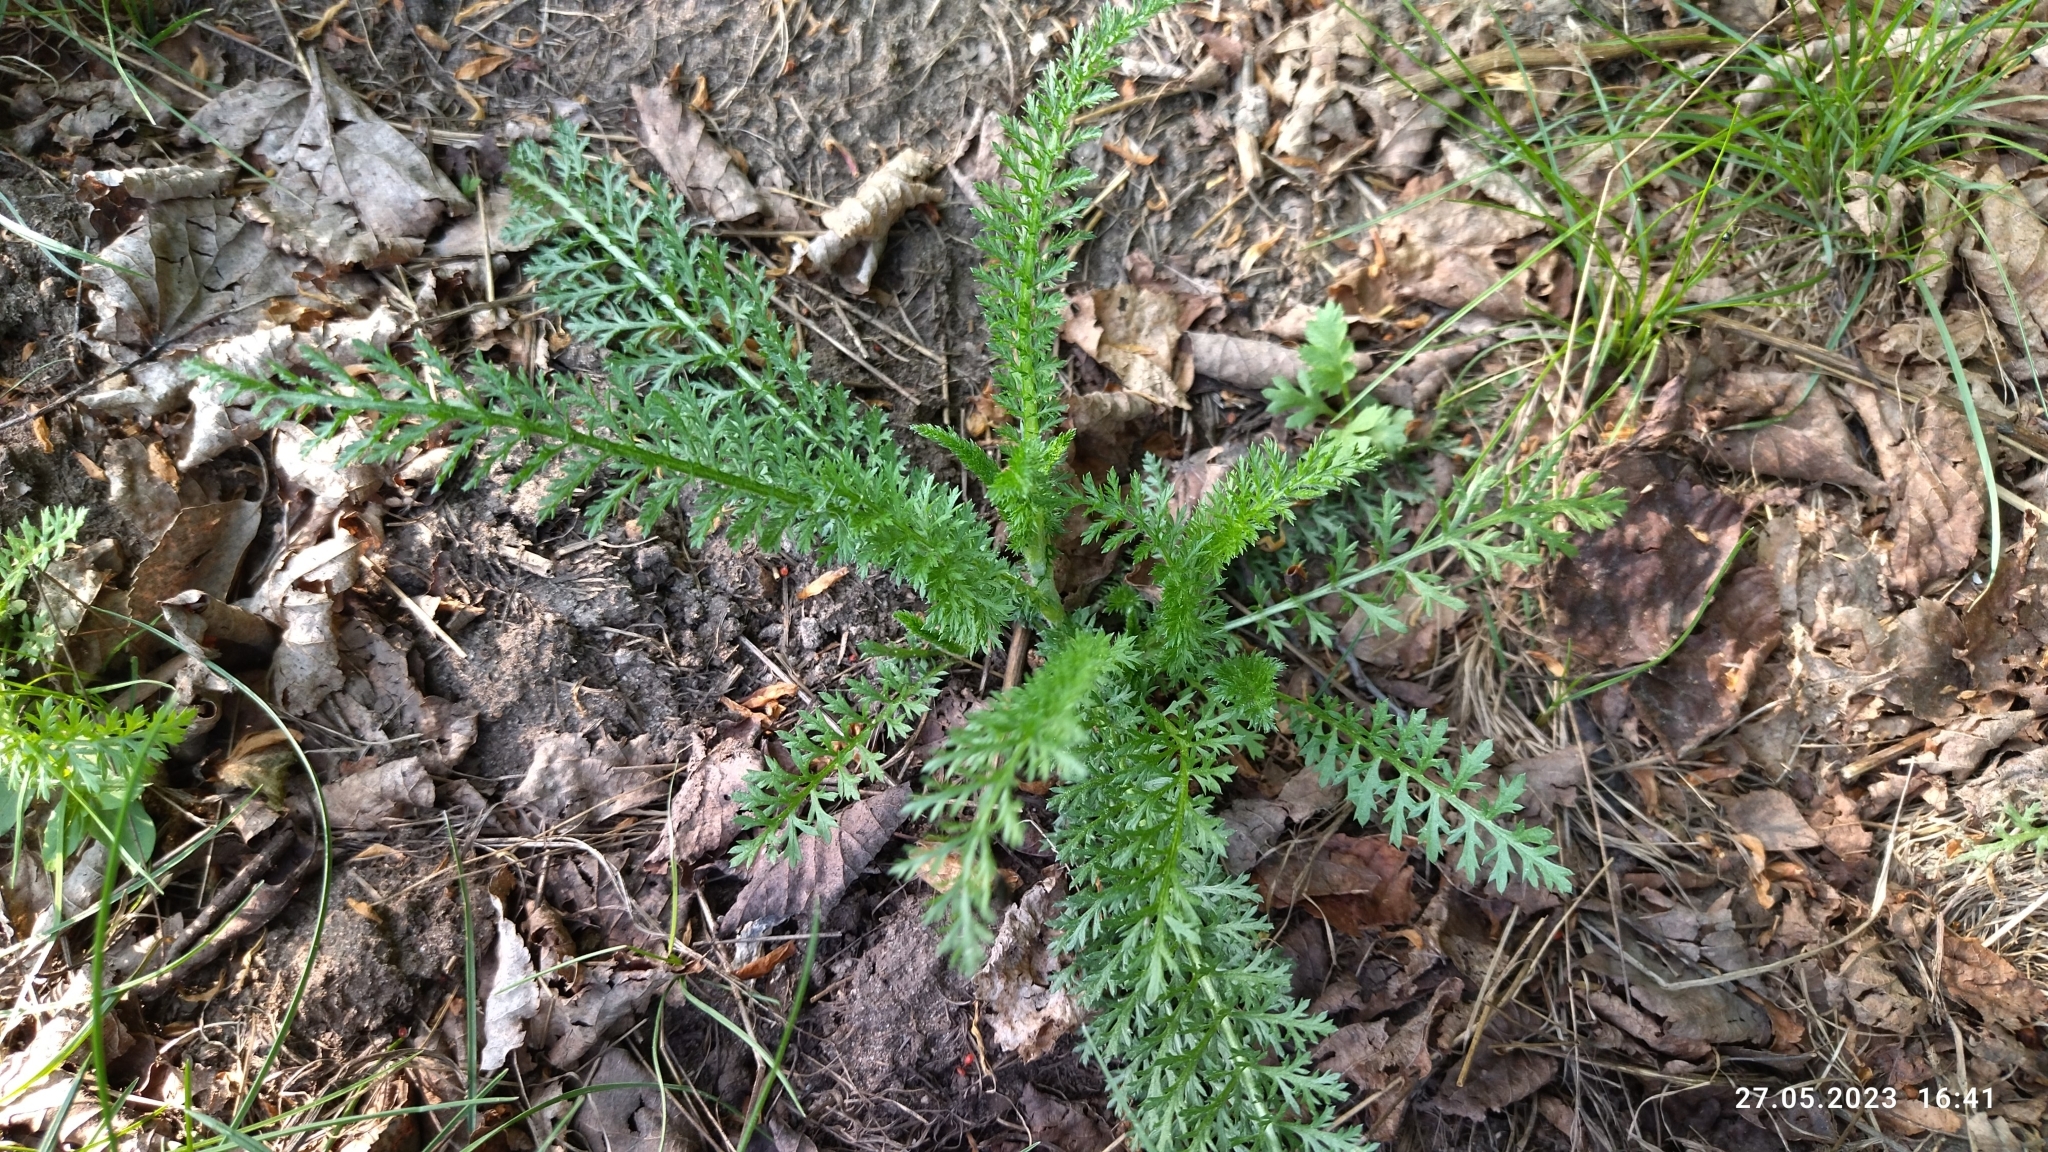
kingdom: Plantae
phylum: Tracheophyta
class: Magnoliopsida
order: Asterales
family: Asteraceae
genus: Achillea
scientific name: Achillea millefolium
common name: Yarrow
